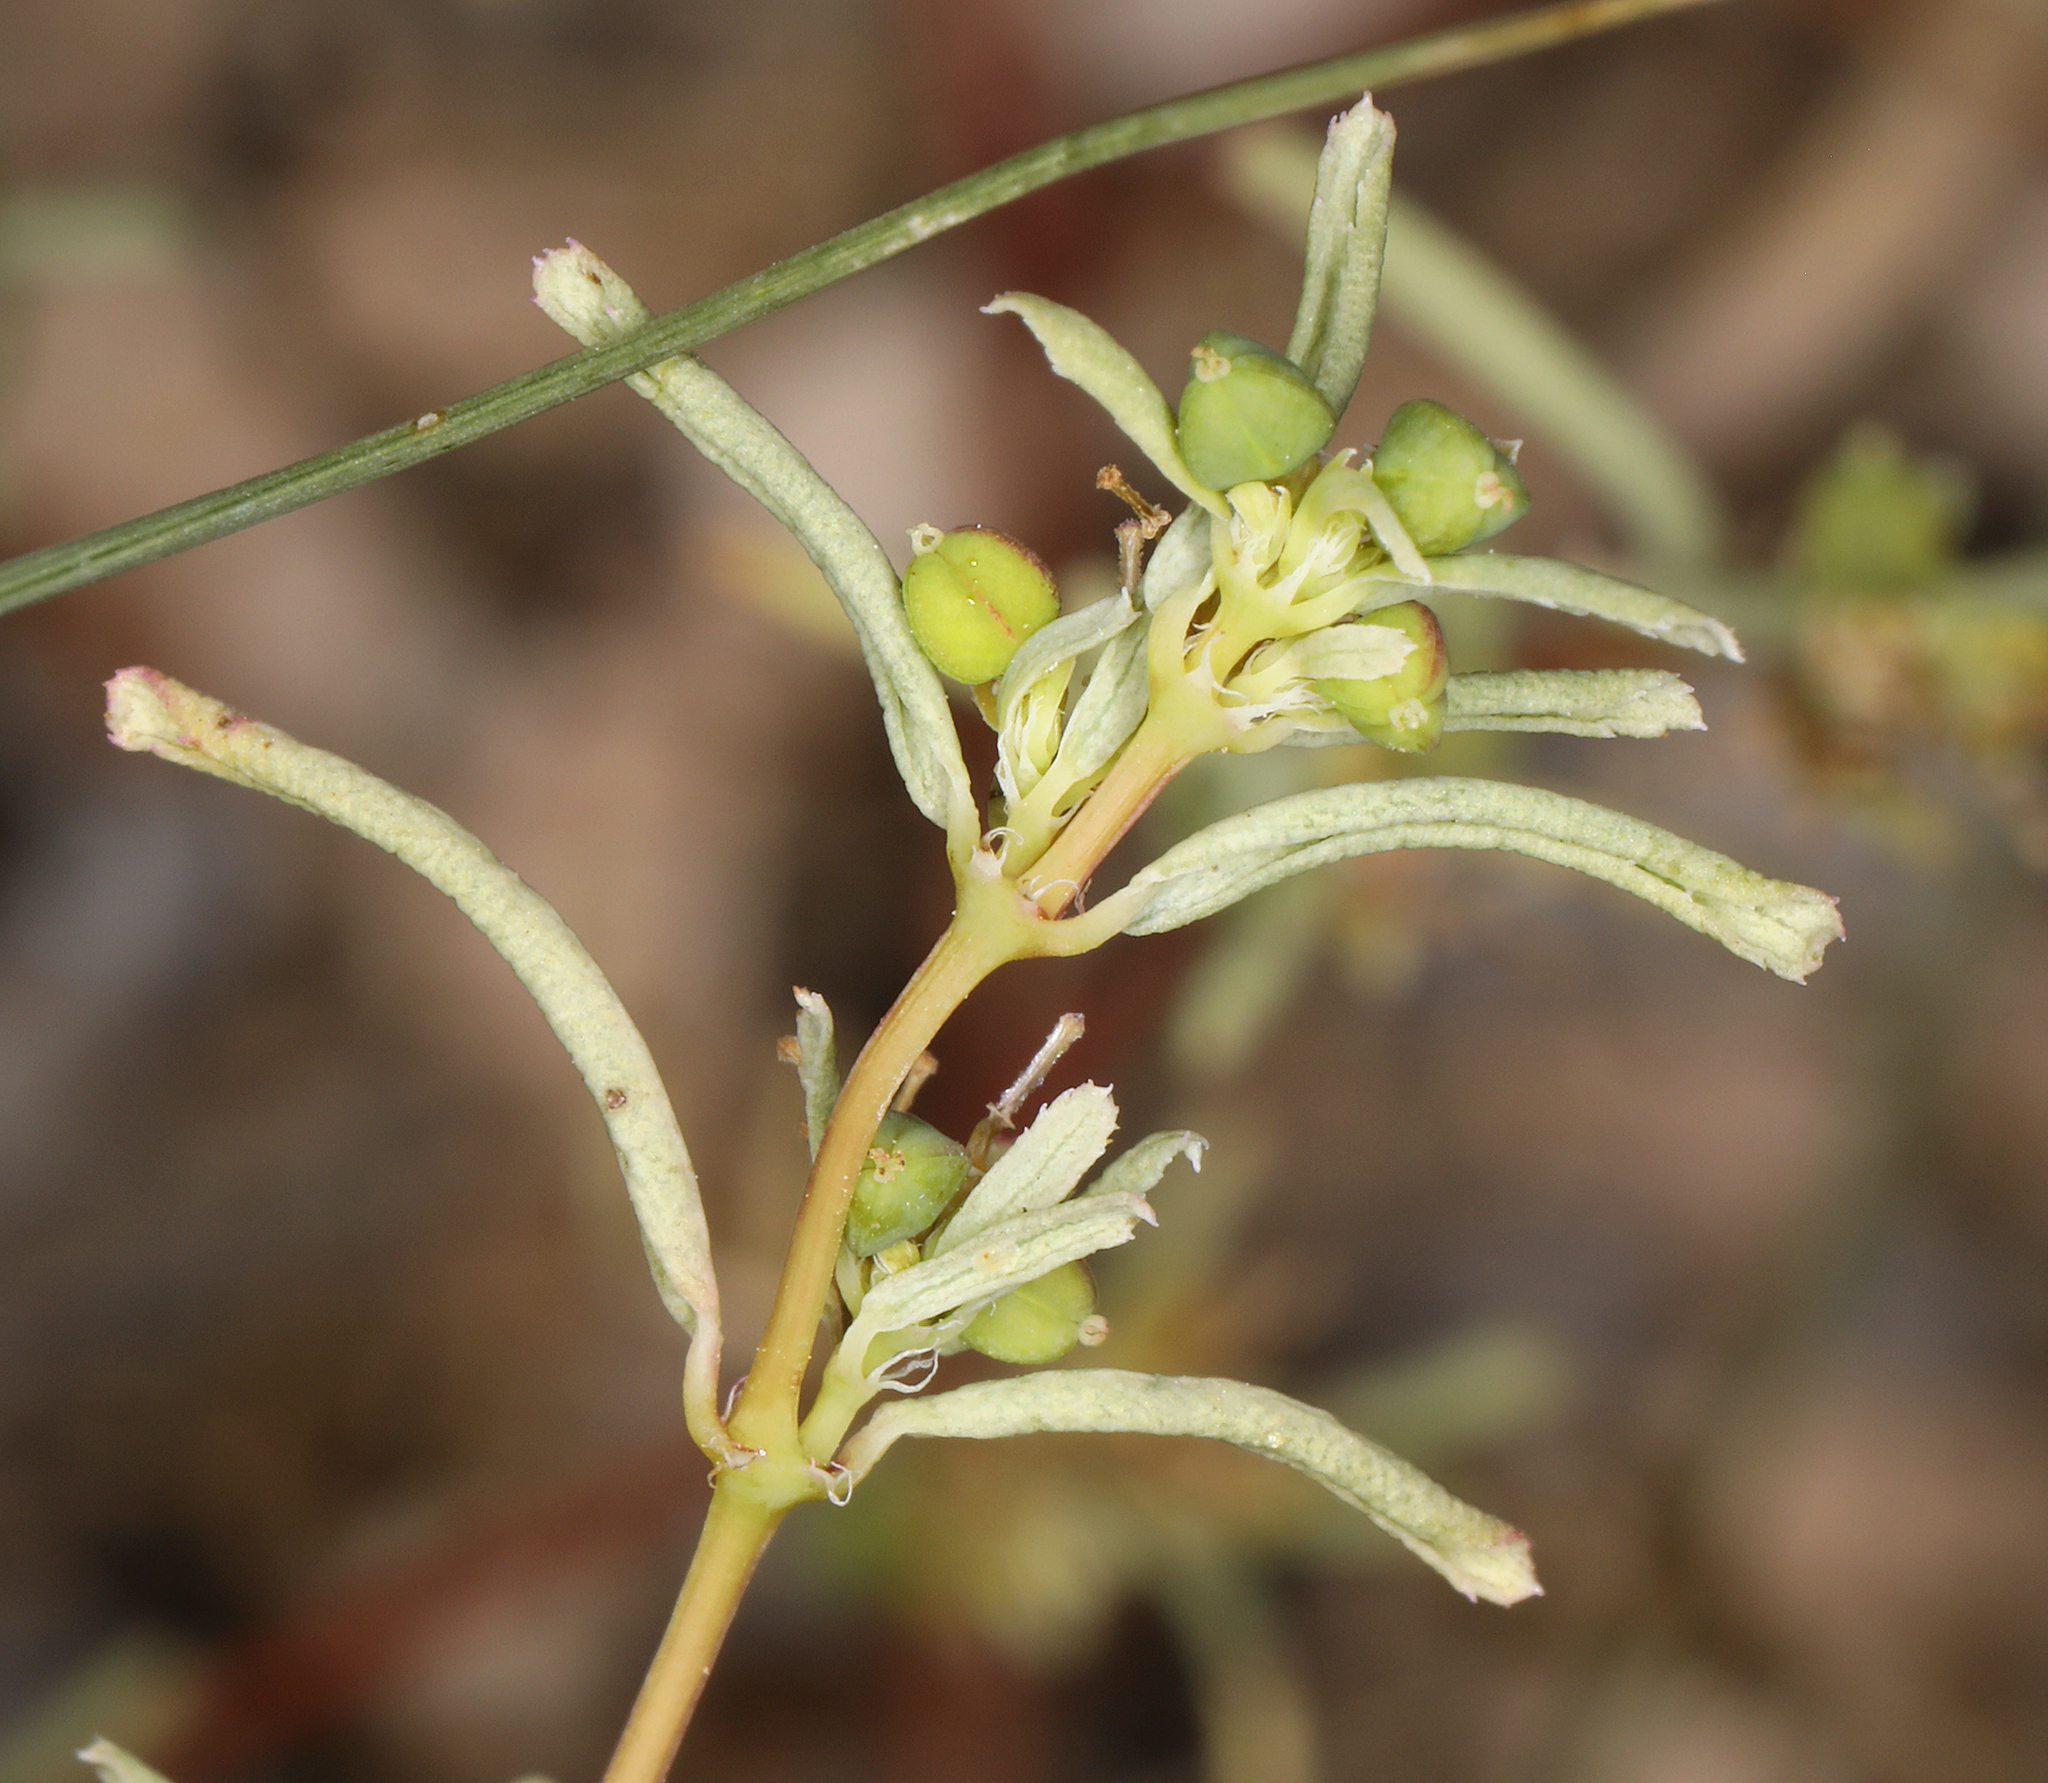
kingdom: Plantae
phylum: Tracheophyta
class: Magnoliopsida
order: Malpighiales
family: Euphorbiaceae
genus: Euphorbia
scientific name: Euphorbia serpillifolia
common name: Thyme-leaf spurge
